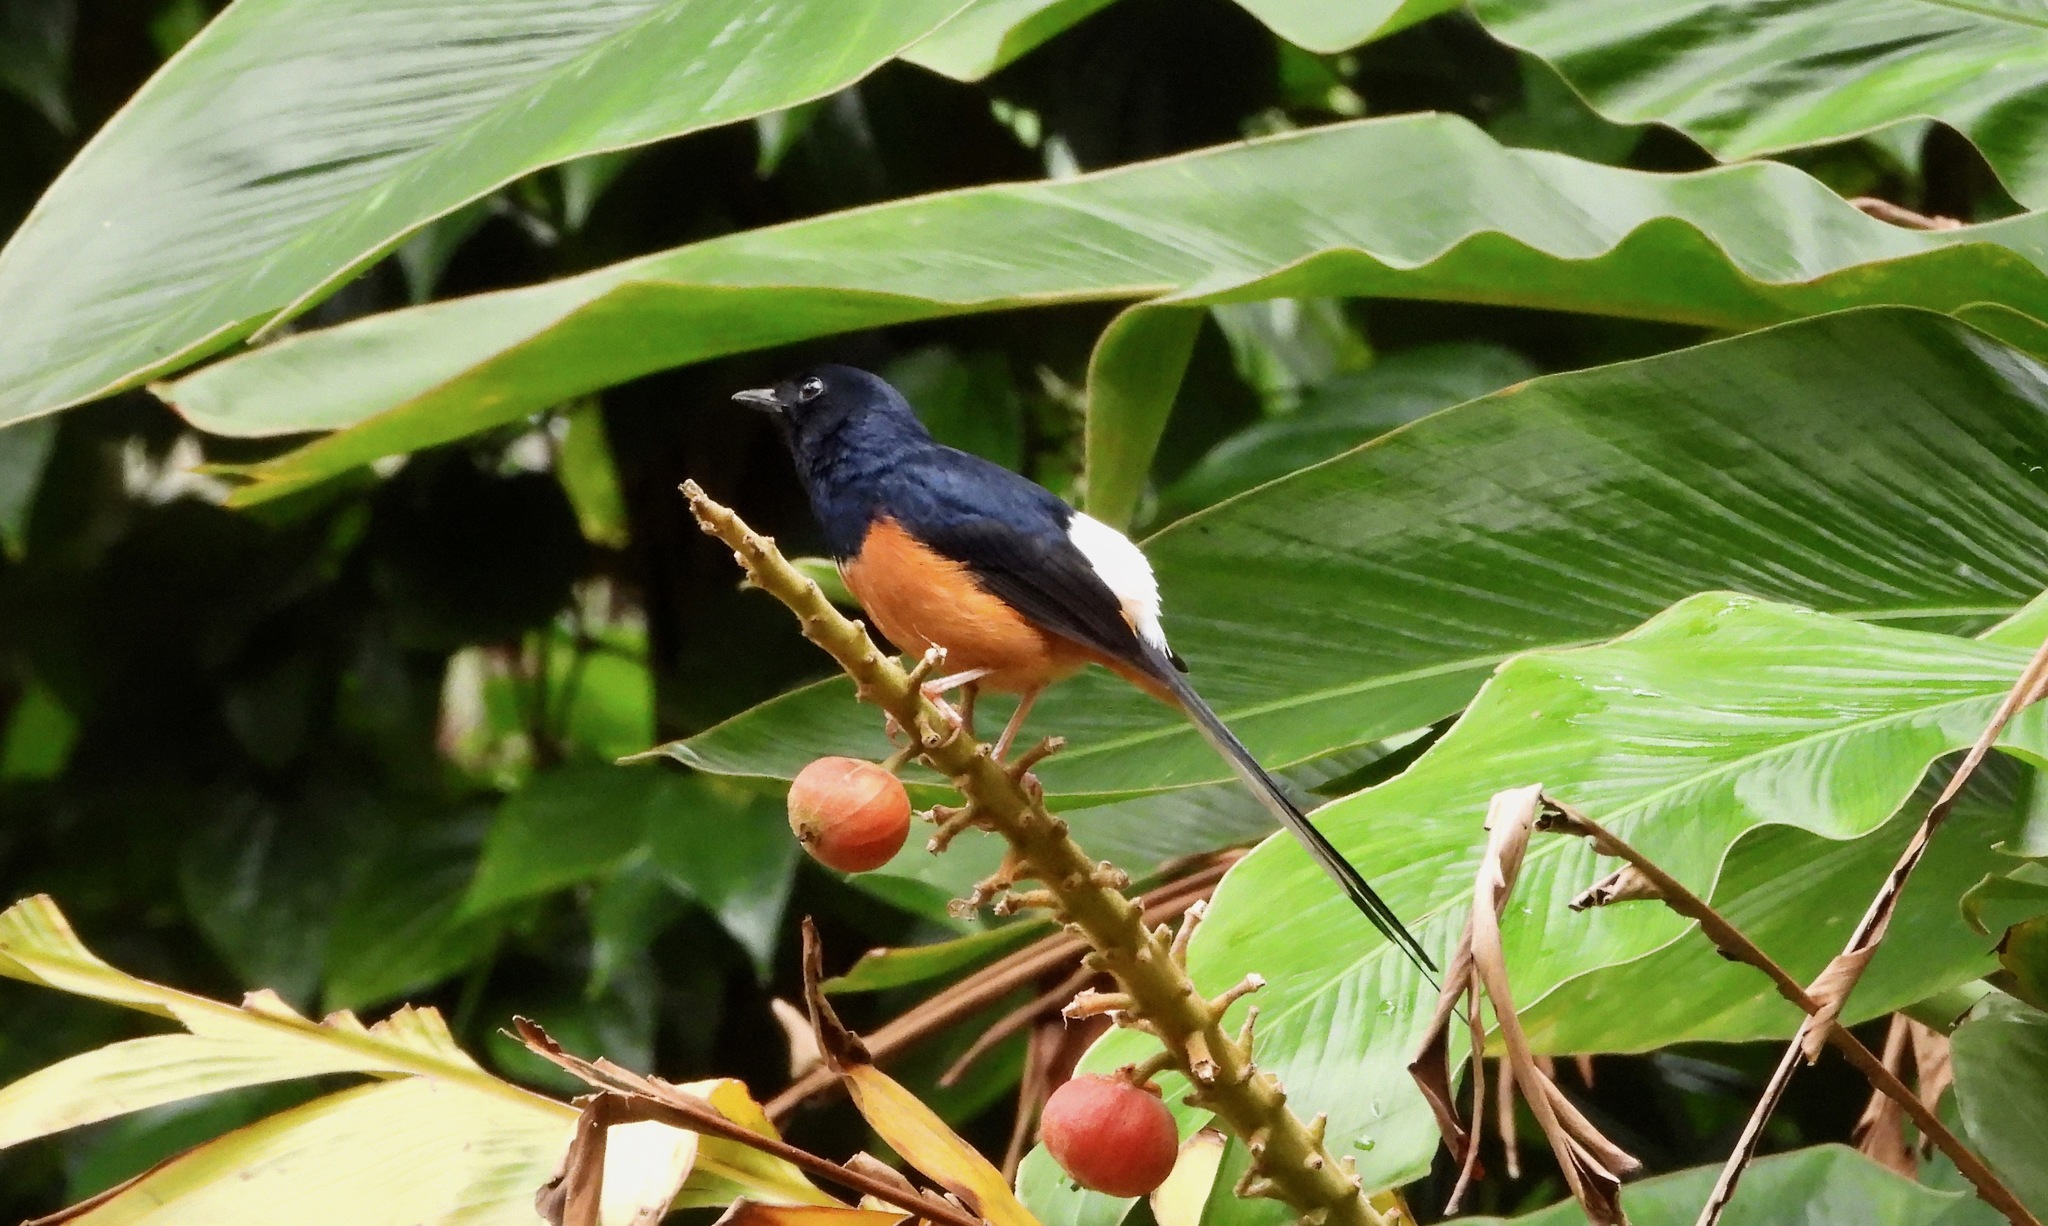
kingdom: Animalia
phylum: Chordata
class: Aves
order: Passeriformes
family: Muscicapidae
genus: Copsychus
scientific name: Copsychus malabaricus
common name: White-rumped shama
